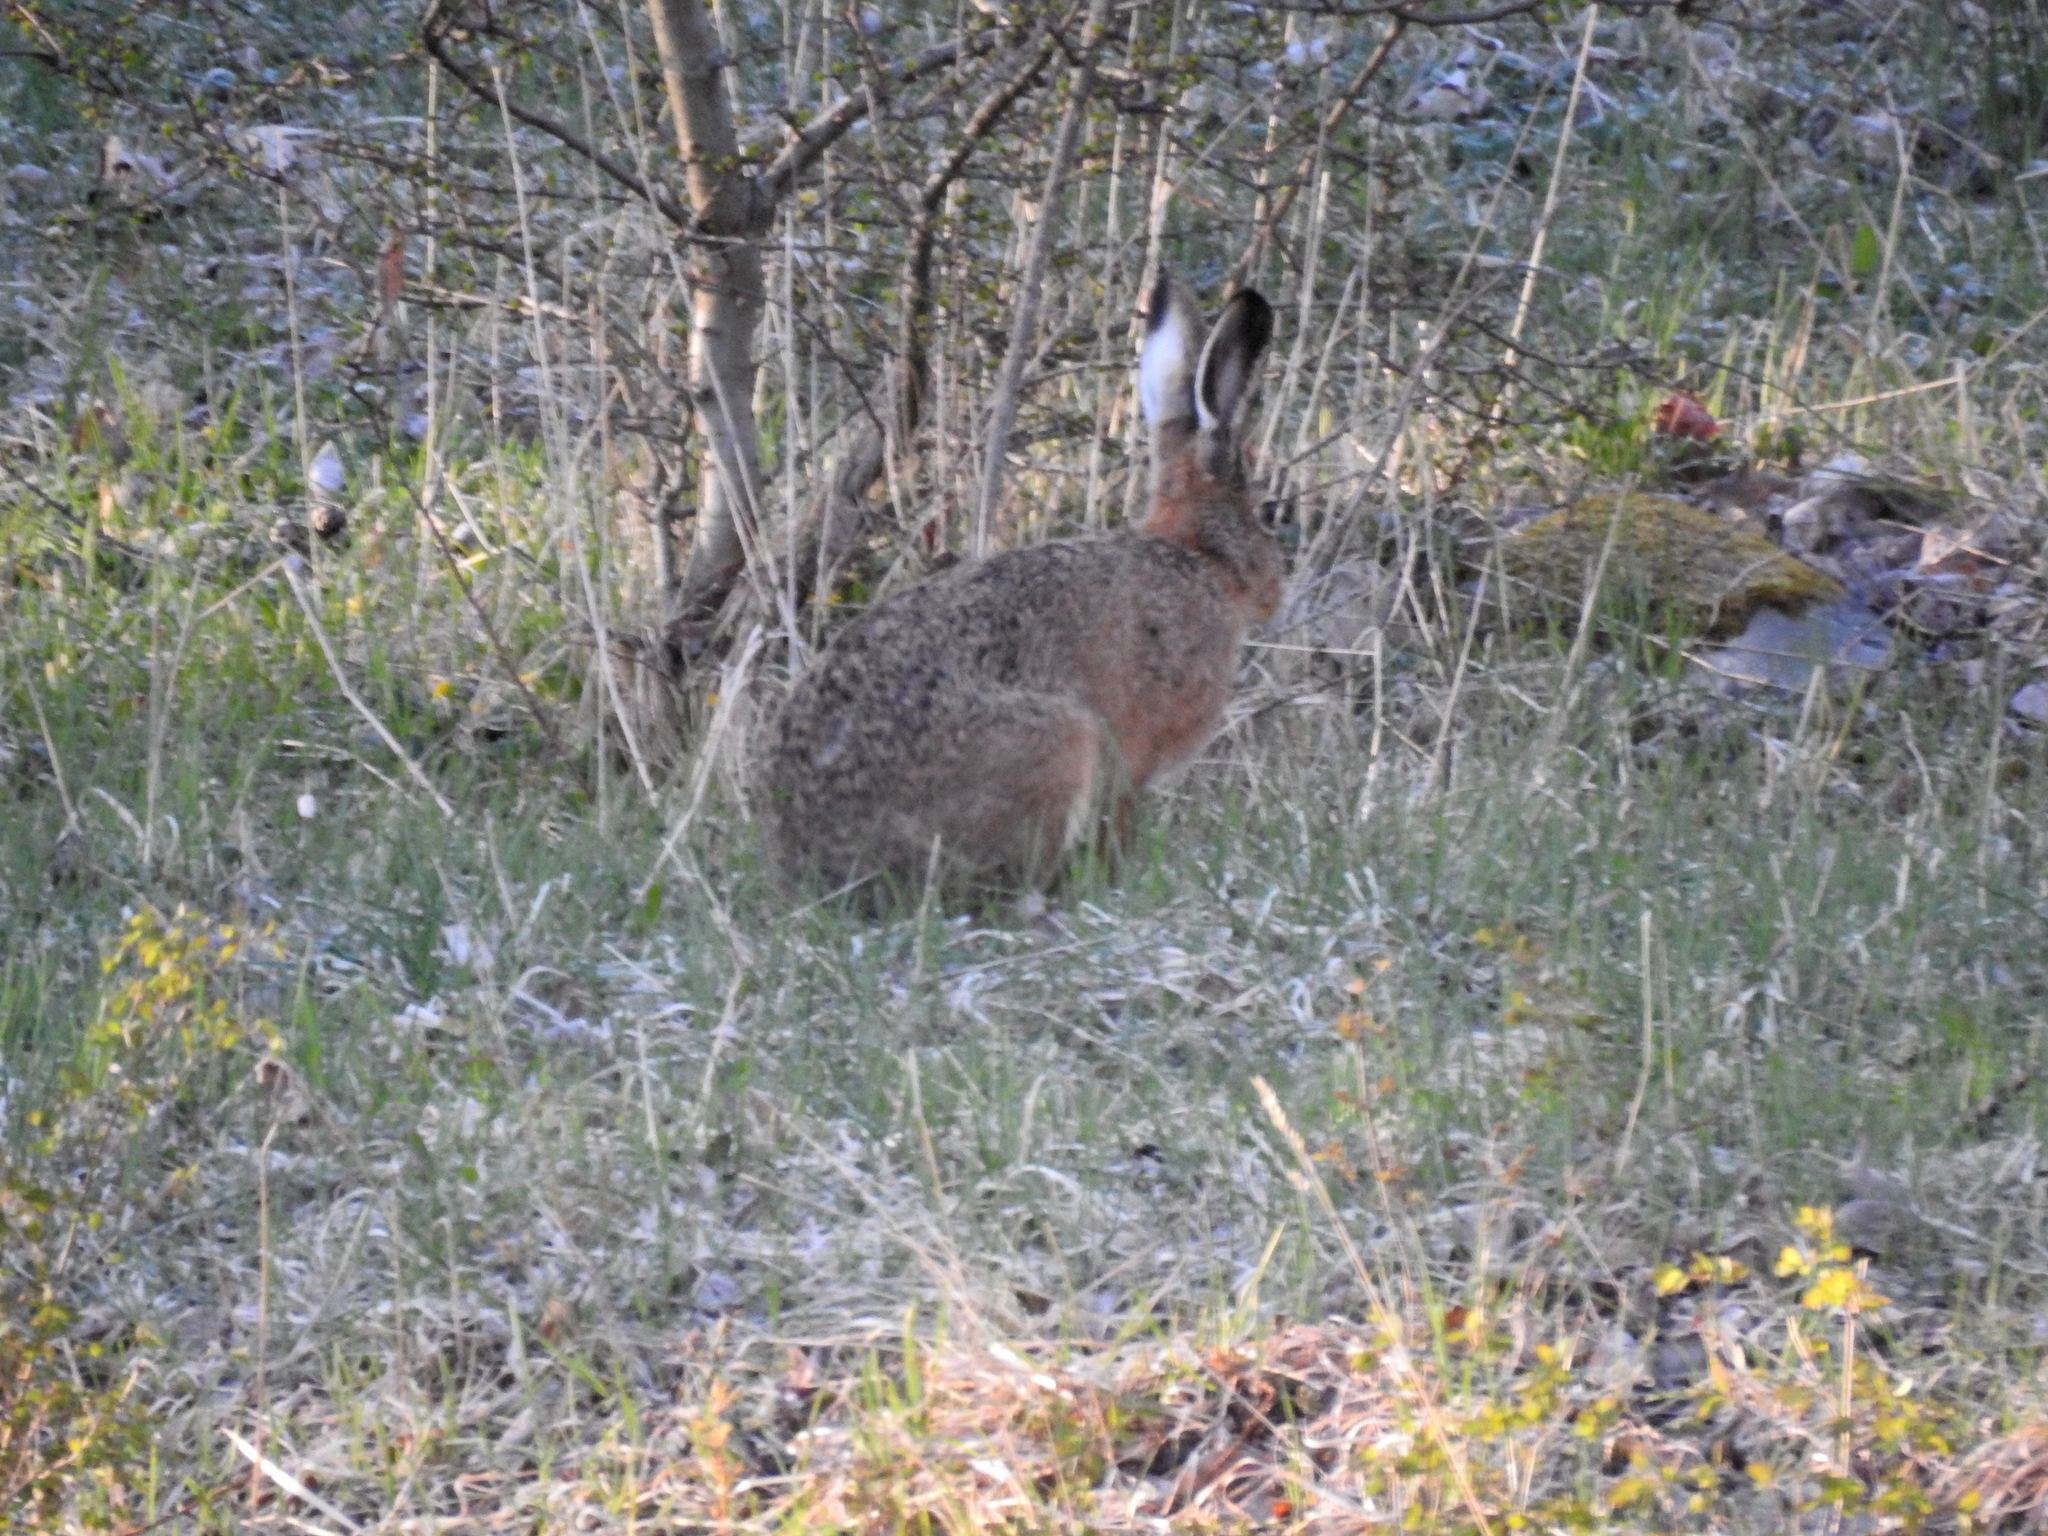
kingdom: Animalia
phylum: Chordata
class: Mammalia
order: Lagomorpha
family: Leporidae
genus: Lepus
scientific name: Lepus europaeus
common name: European hare
